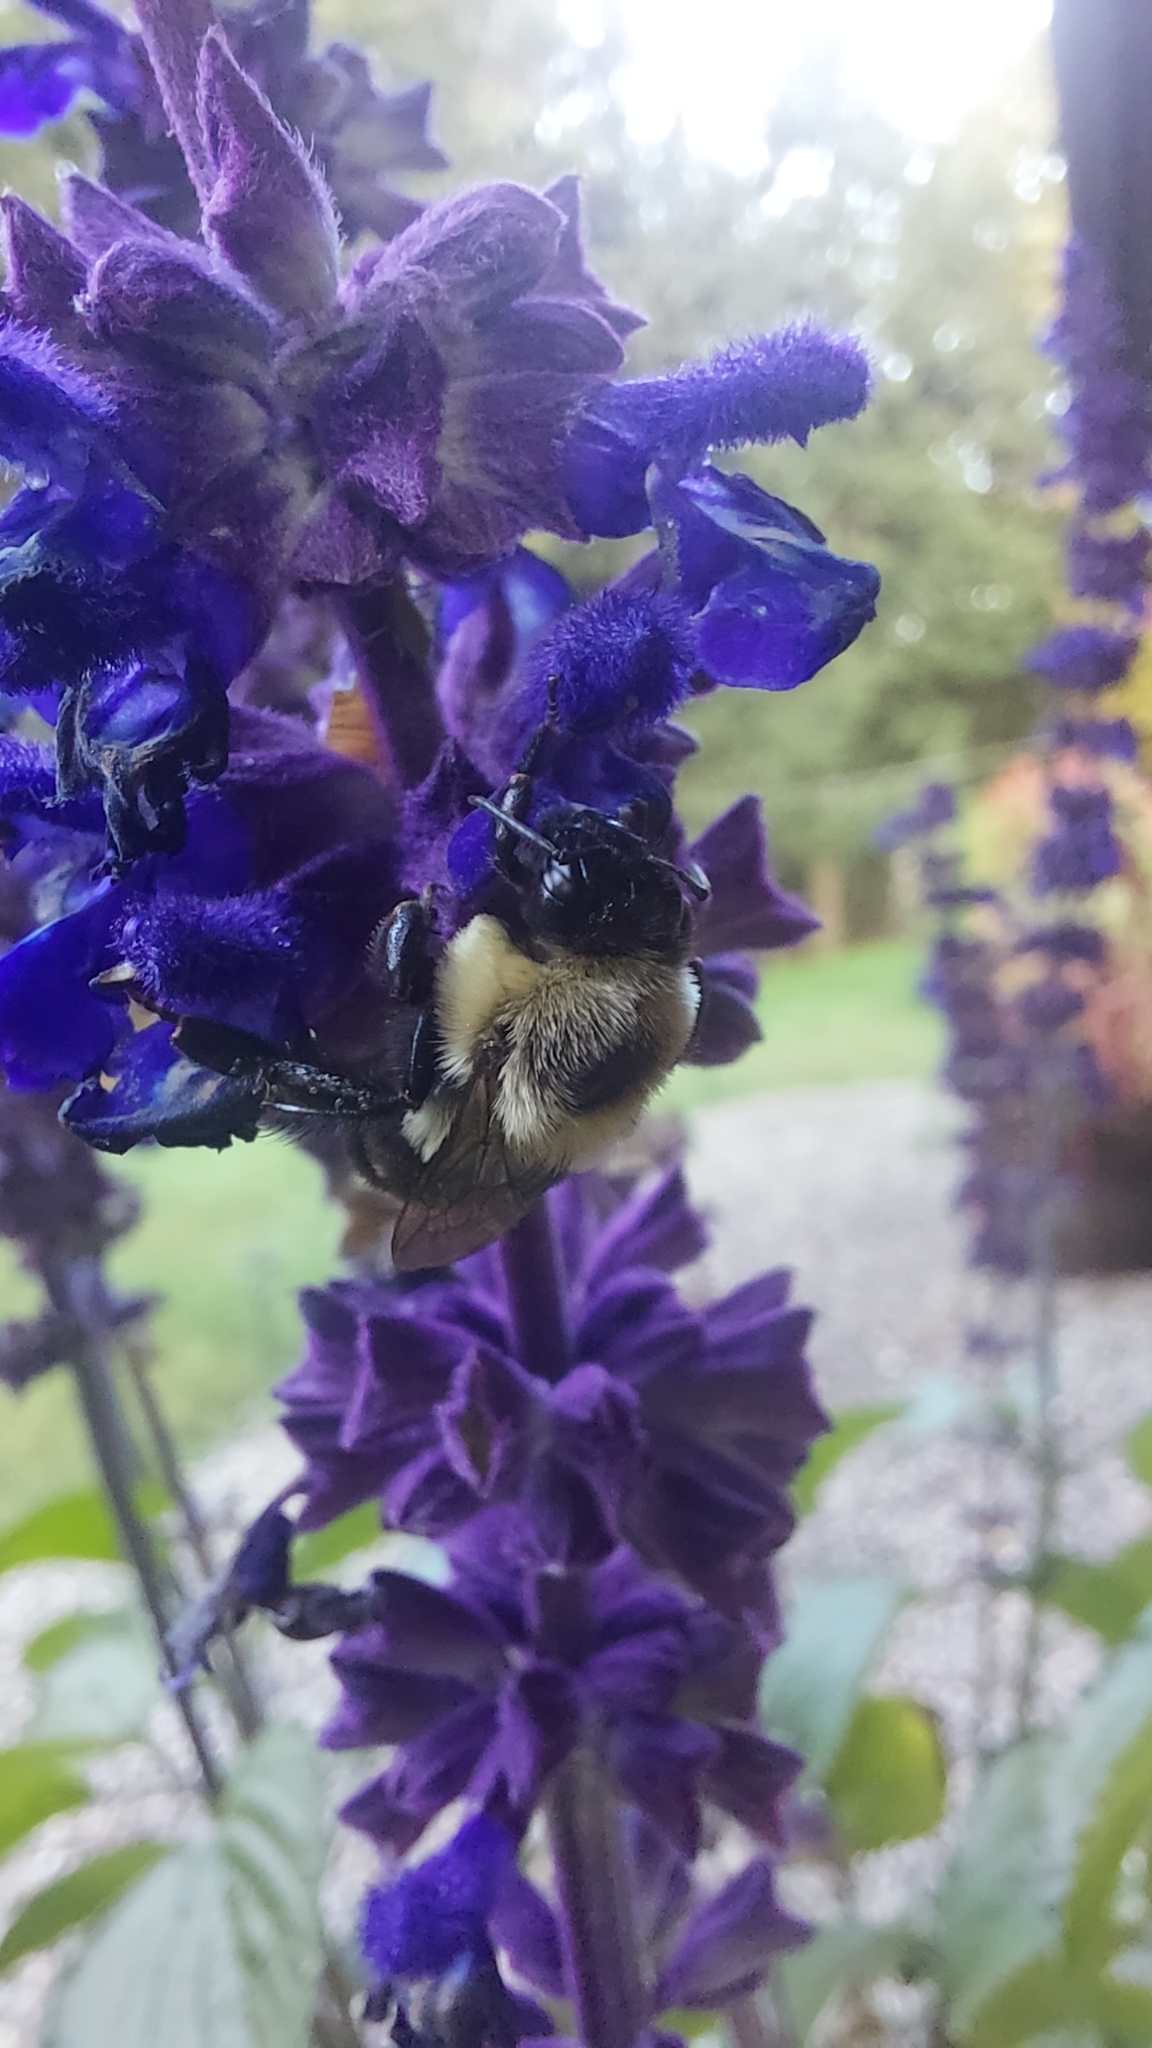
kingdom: Animalia
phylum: Arthropoda
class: Insecta
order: Hymenoptera
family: Apidae
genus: Bombus
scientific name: Bombus impatiens
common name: Common eastern bumble bee
